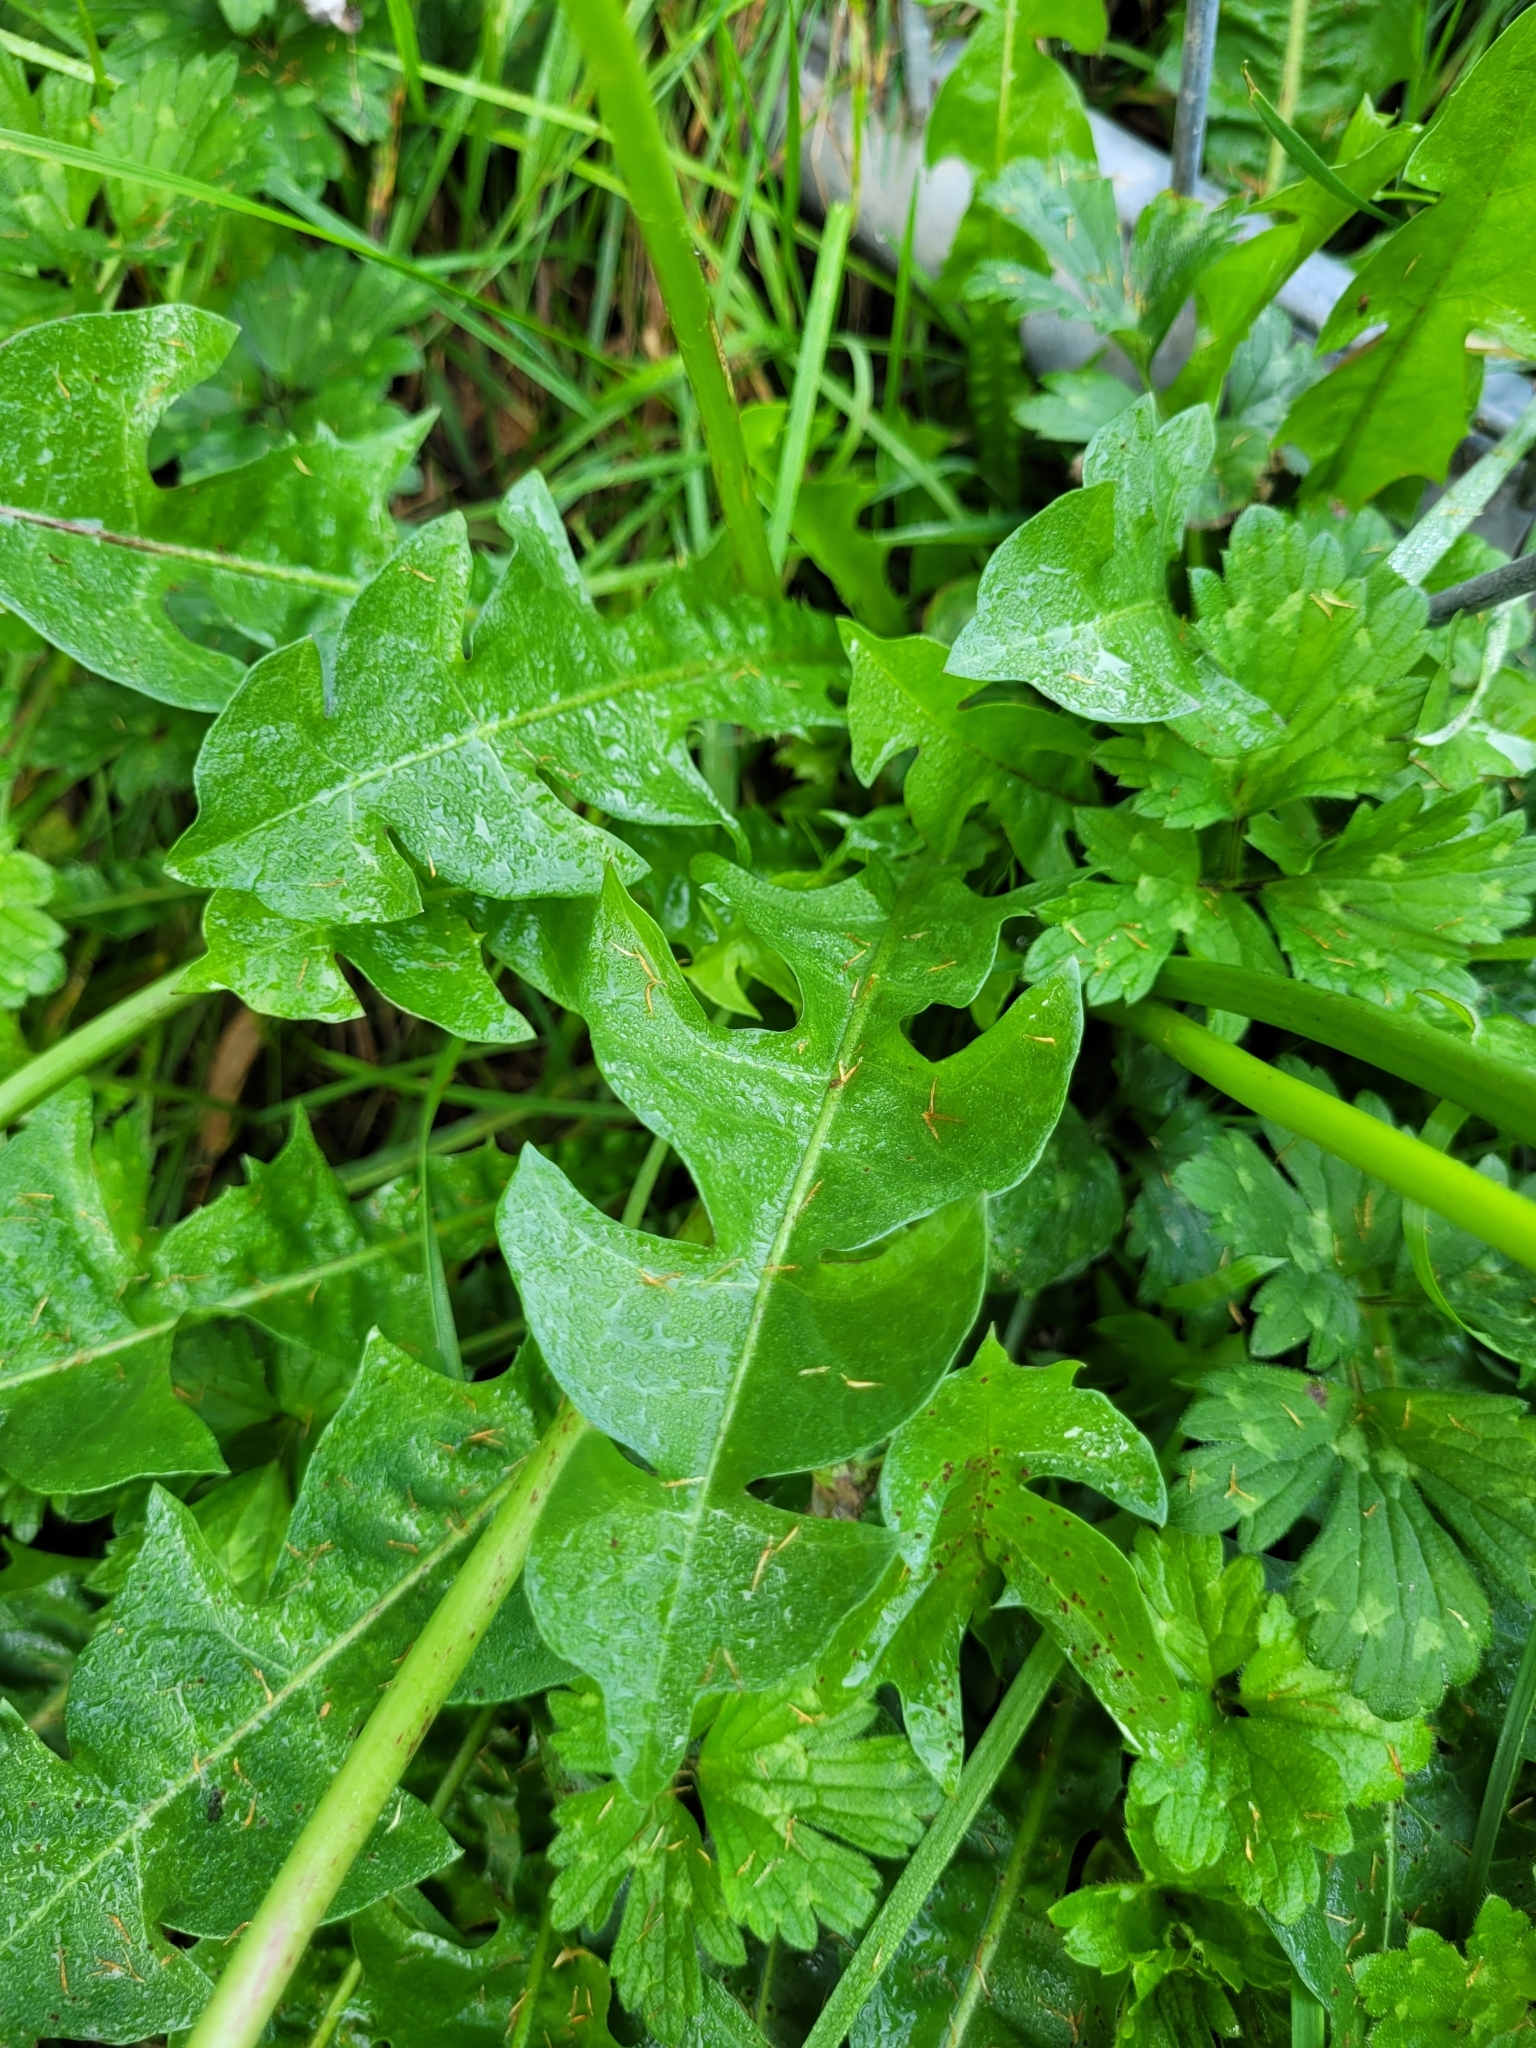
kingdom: Plantae
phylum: Tracheophyta
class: Magnoliopsida
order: Asterales
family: Asteraceae
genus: Taraxacum
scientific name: Taraxacum officinale
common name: Common dandelion
